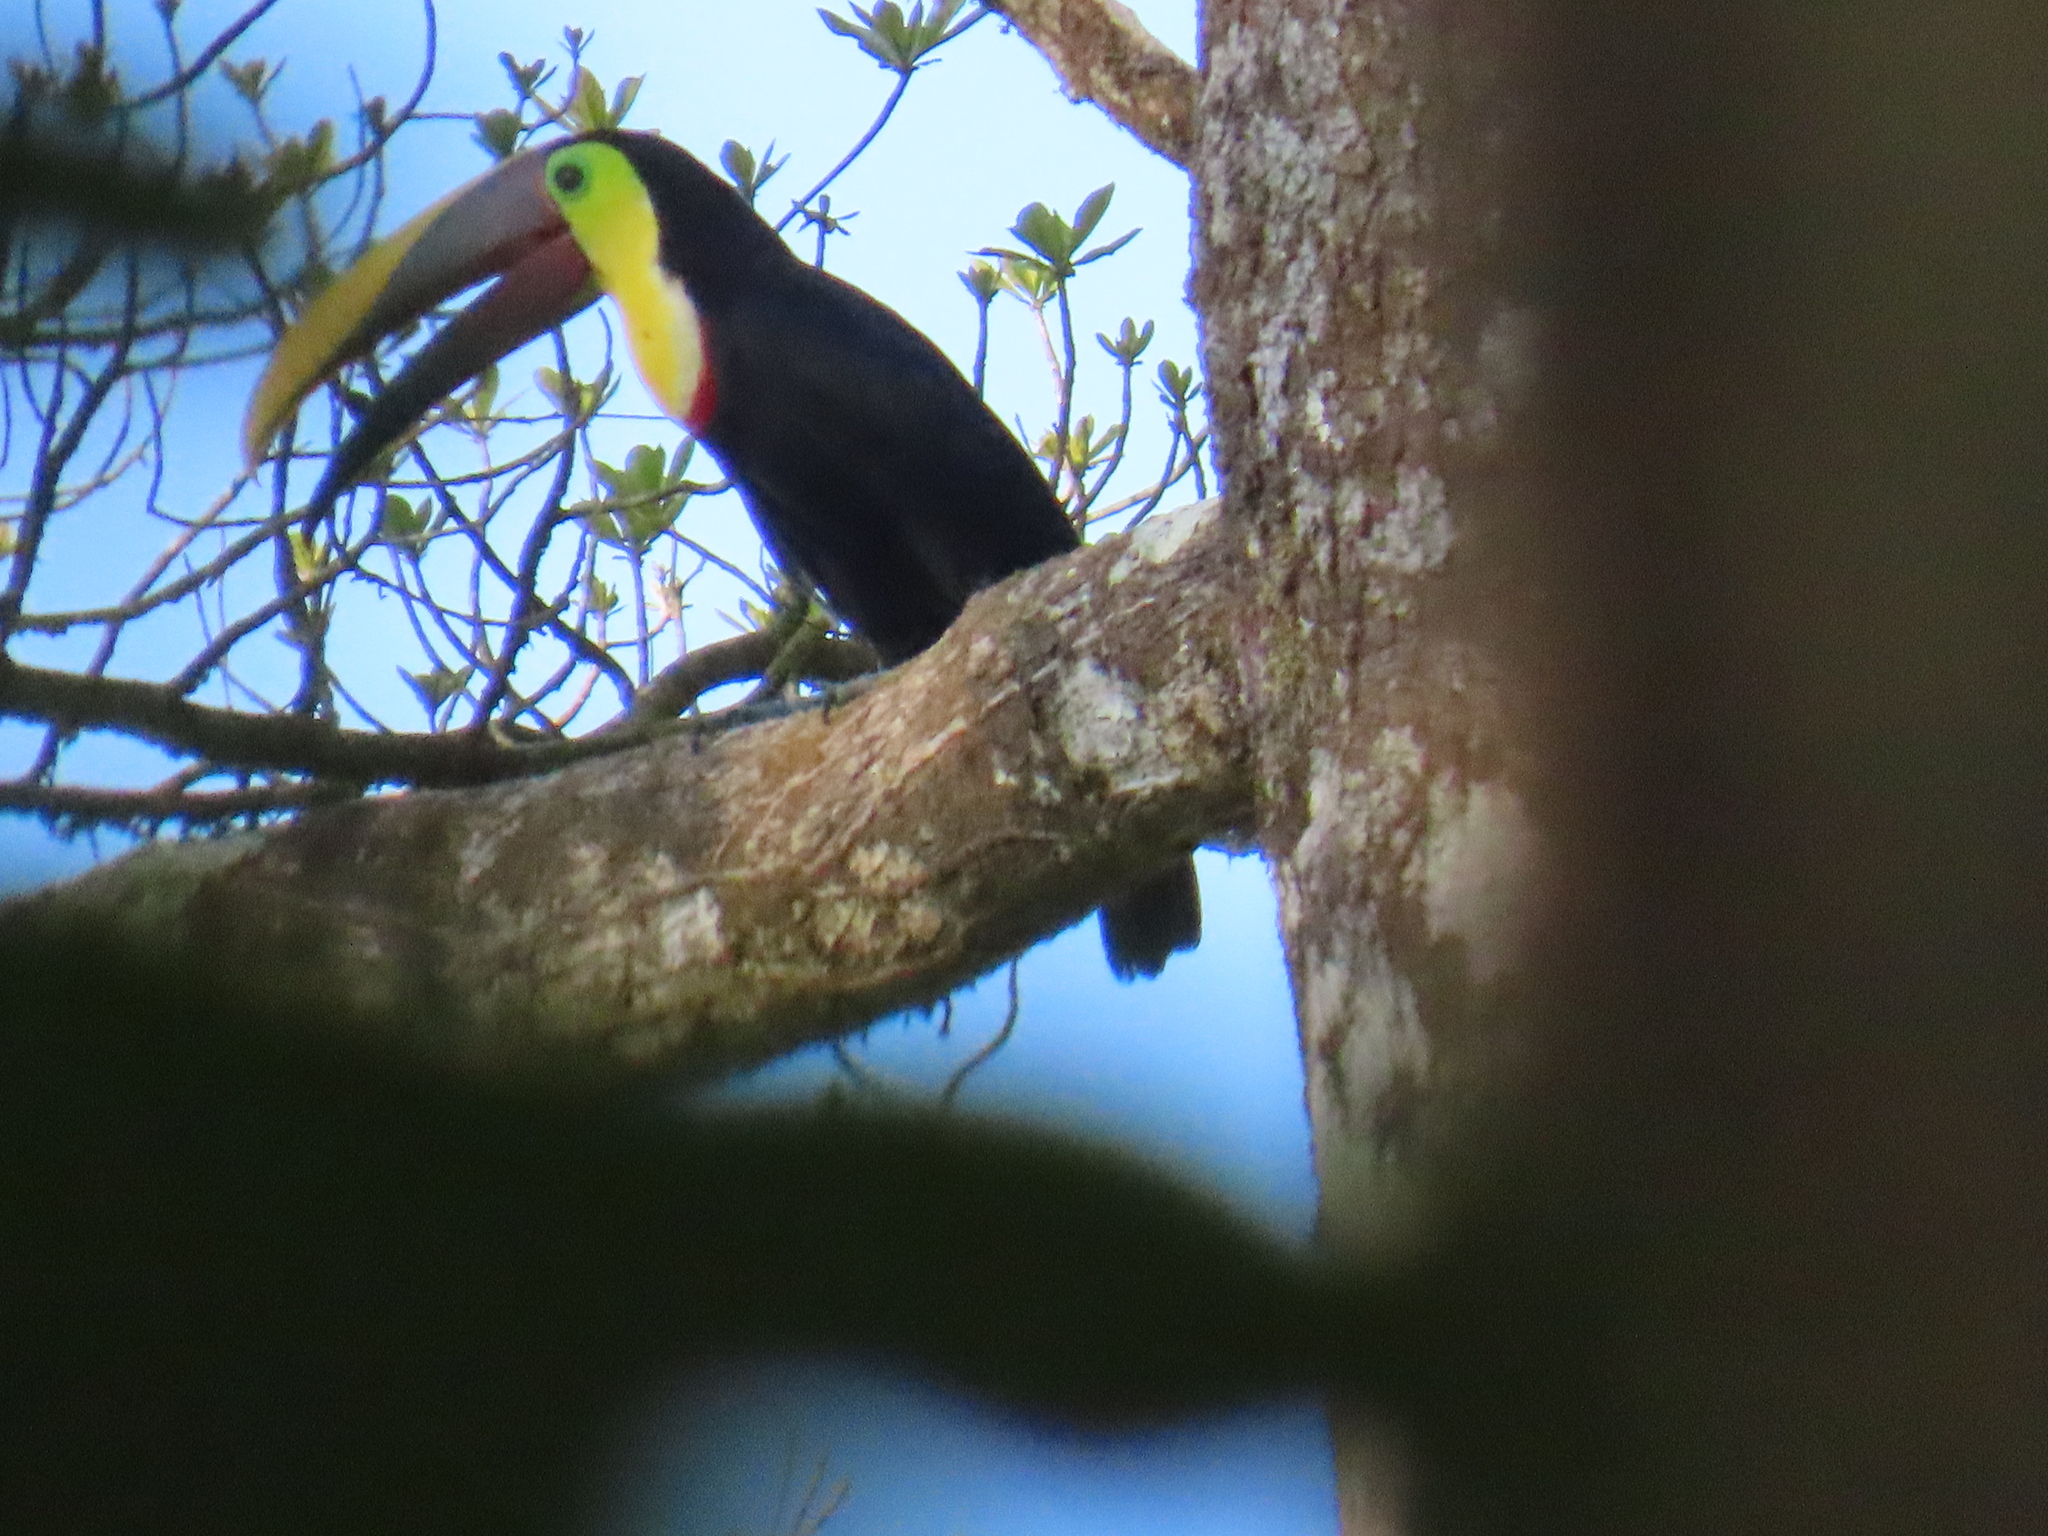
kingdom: Animalia
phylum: Chordata
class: Aves
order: Piciformes
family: Ramphastidae
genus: Ramphastos
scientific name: Ramphastos ambiguus
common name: Yellow-throated toucan
